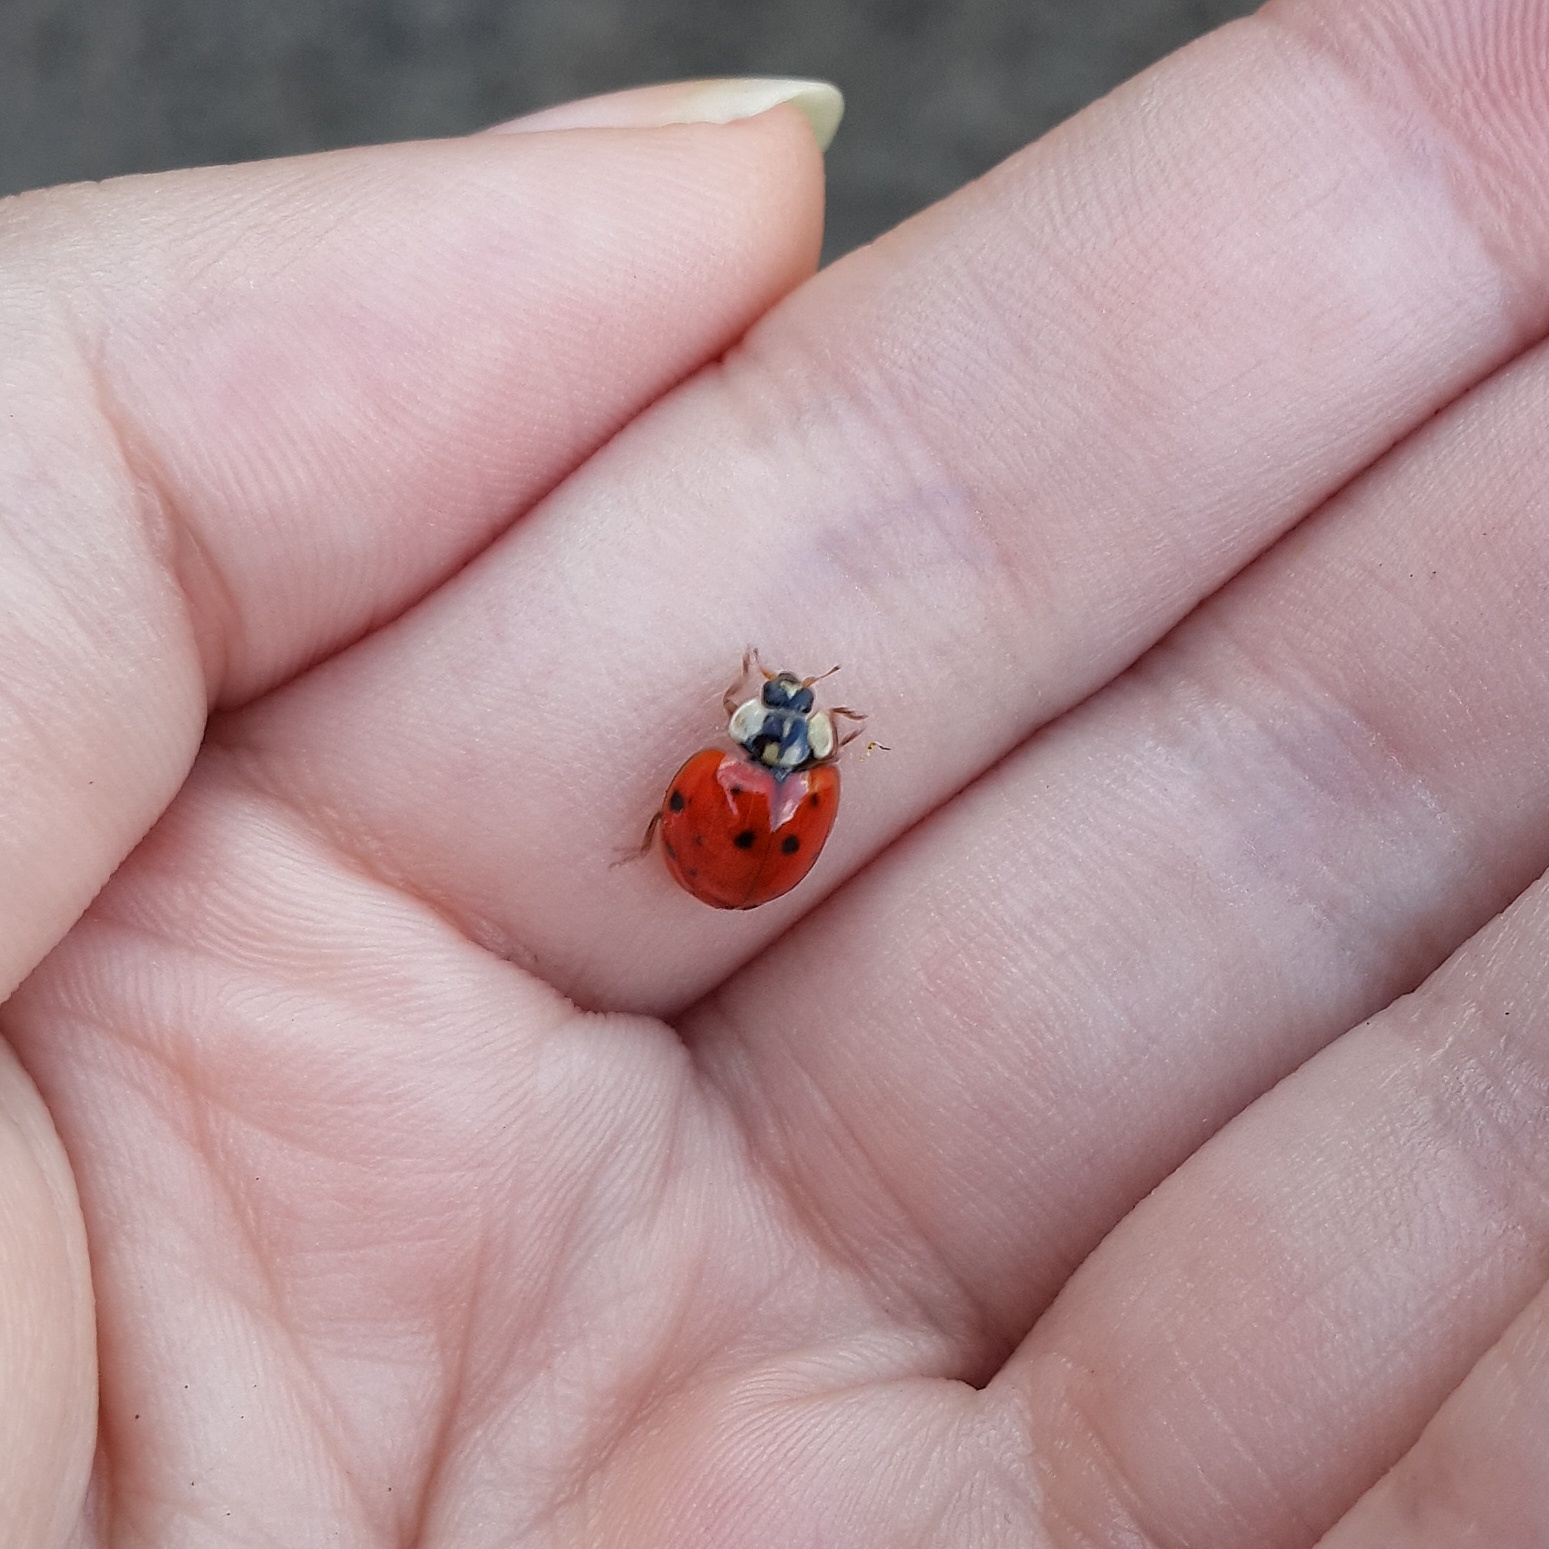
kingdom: Animalia
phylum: Arthropoda
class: Insecta
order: Coleoptera
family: Coccinellidae
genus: Harmonia
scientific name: Harmonia axyridis
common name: Harlequin ladybird
